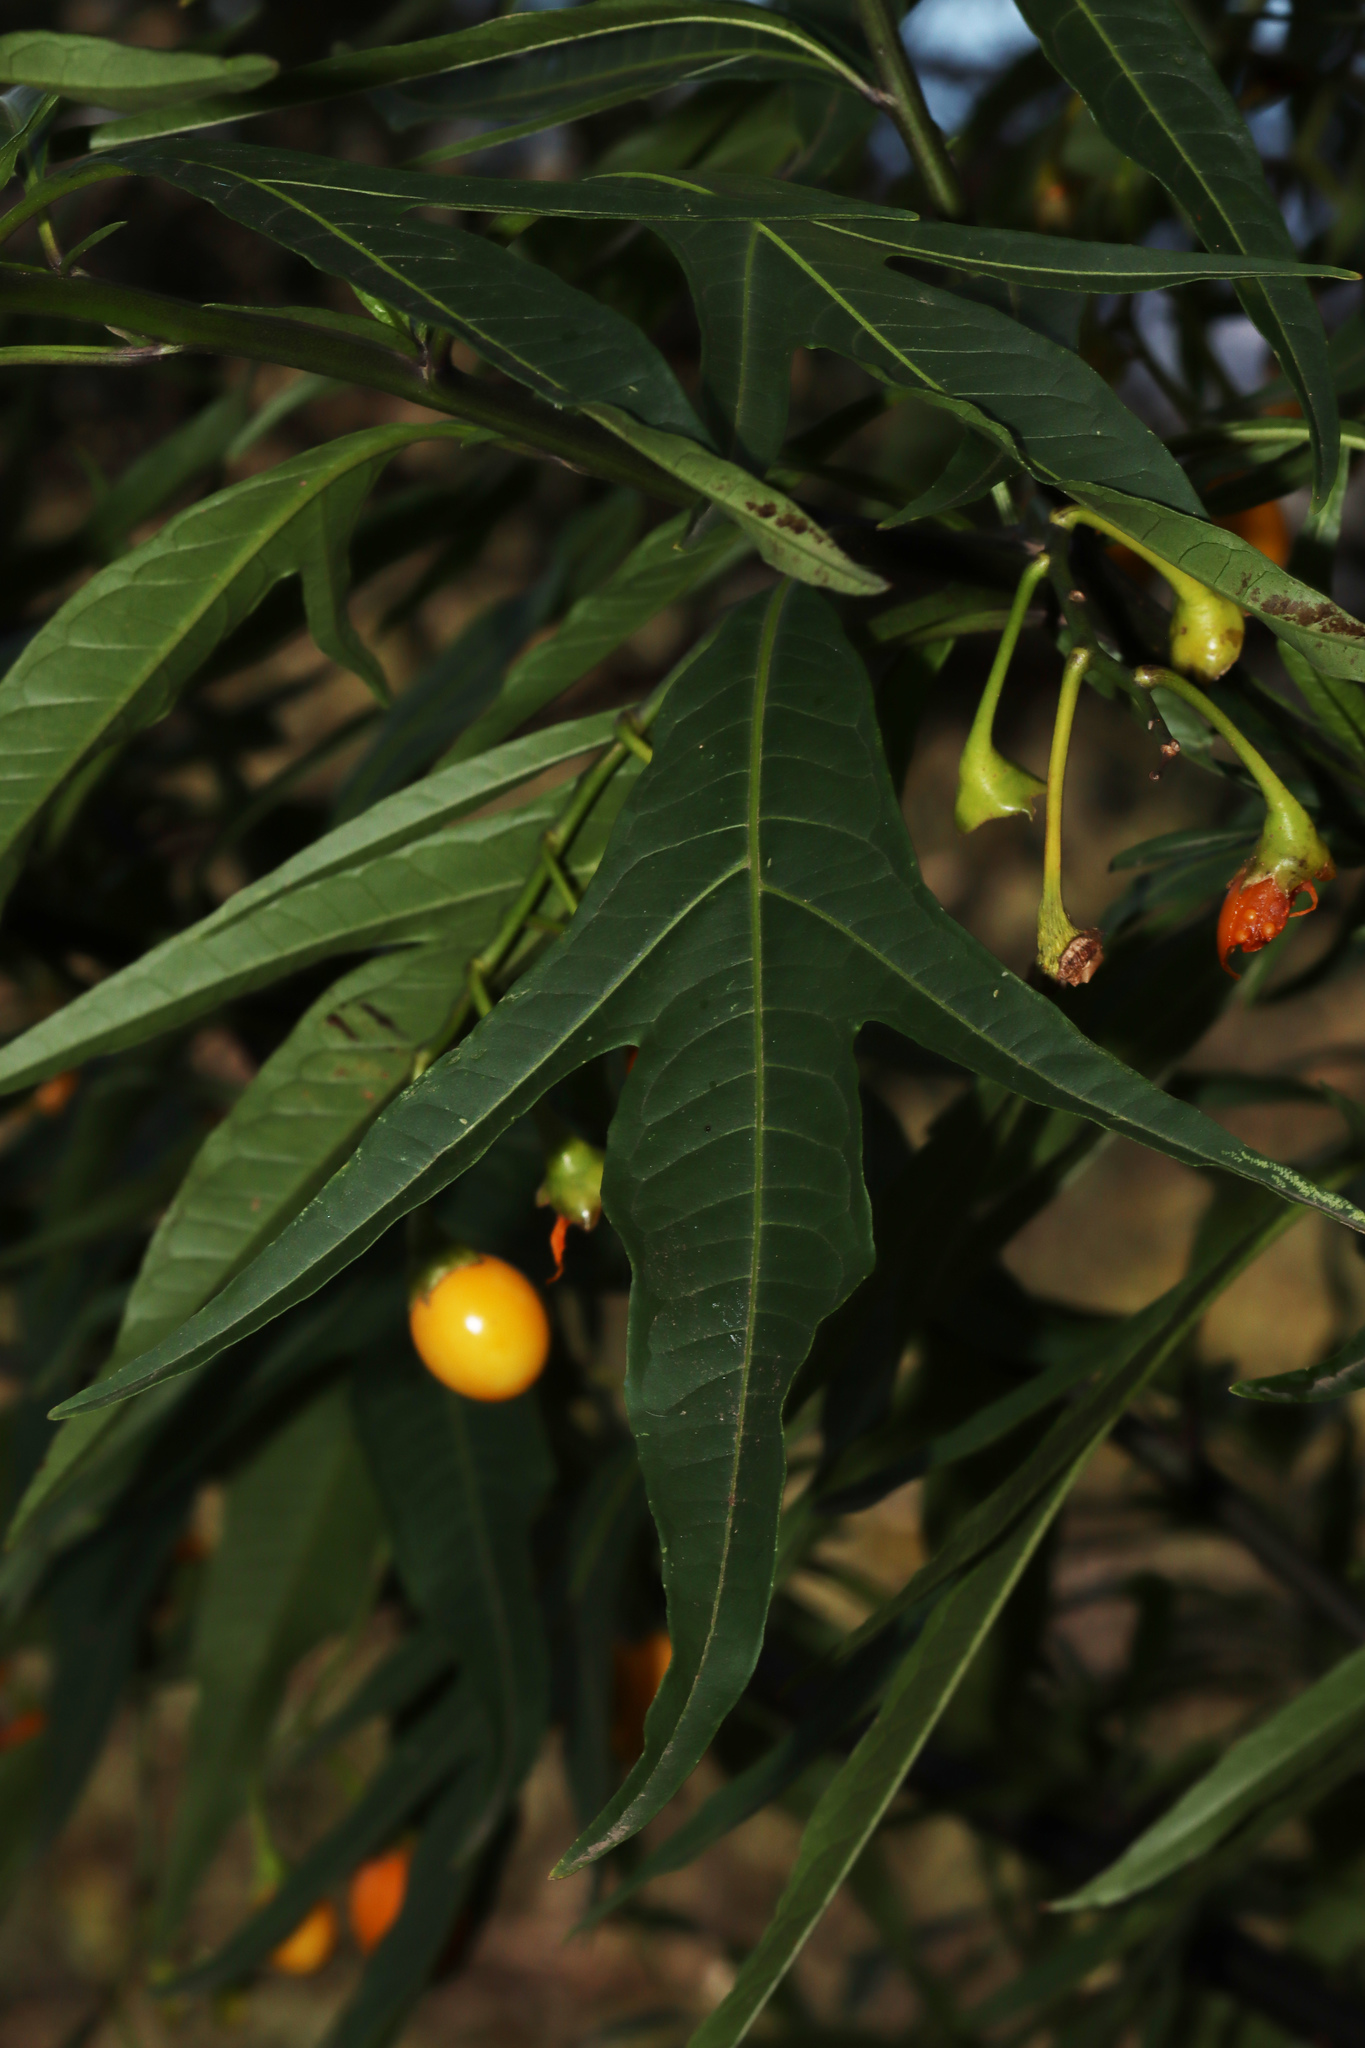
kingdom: Plantae
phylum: Tracheophyta
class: Magnoliopsida
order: Solanales
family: Solanaceae
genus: Solanum
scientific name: Solanum laciniatum
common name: Kangaroo-apple
